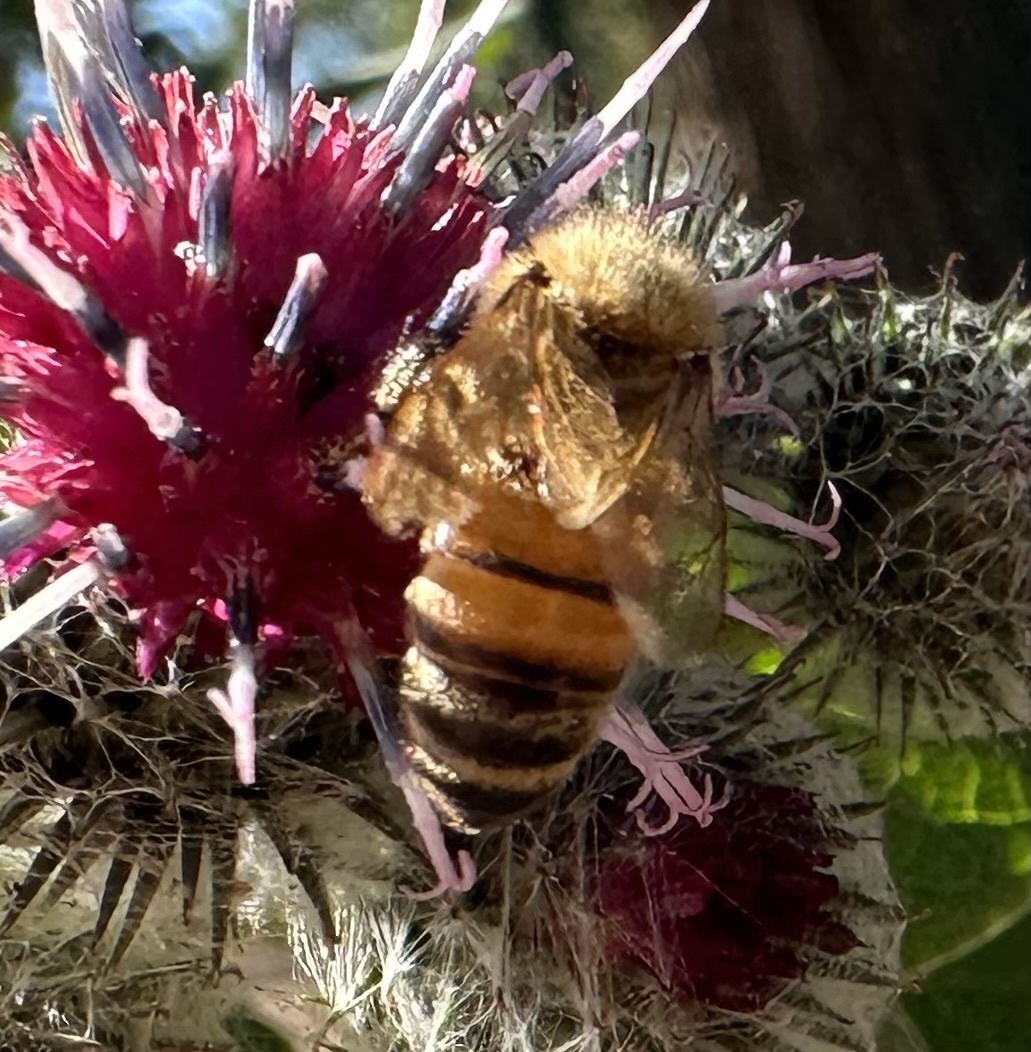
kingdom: Animalia
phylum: Arthropoda
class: Insecta
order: Hymenoptera
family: Apidae
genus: Apis
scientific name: Apis mellifera
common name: Honey bee
